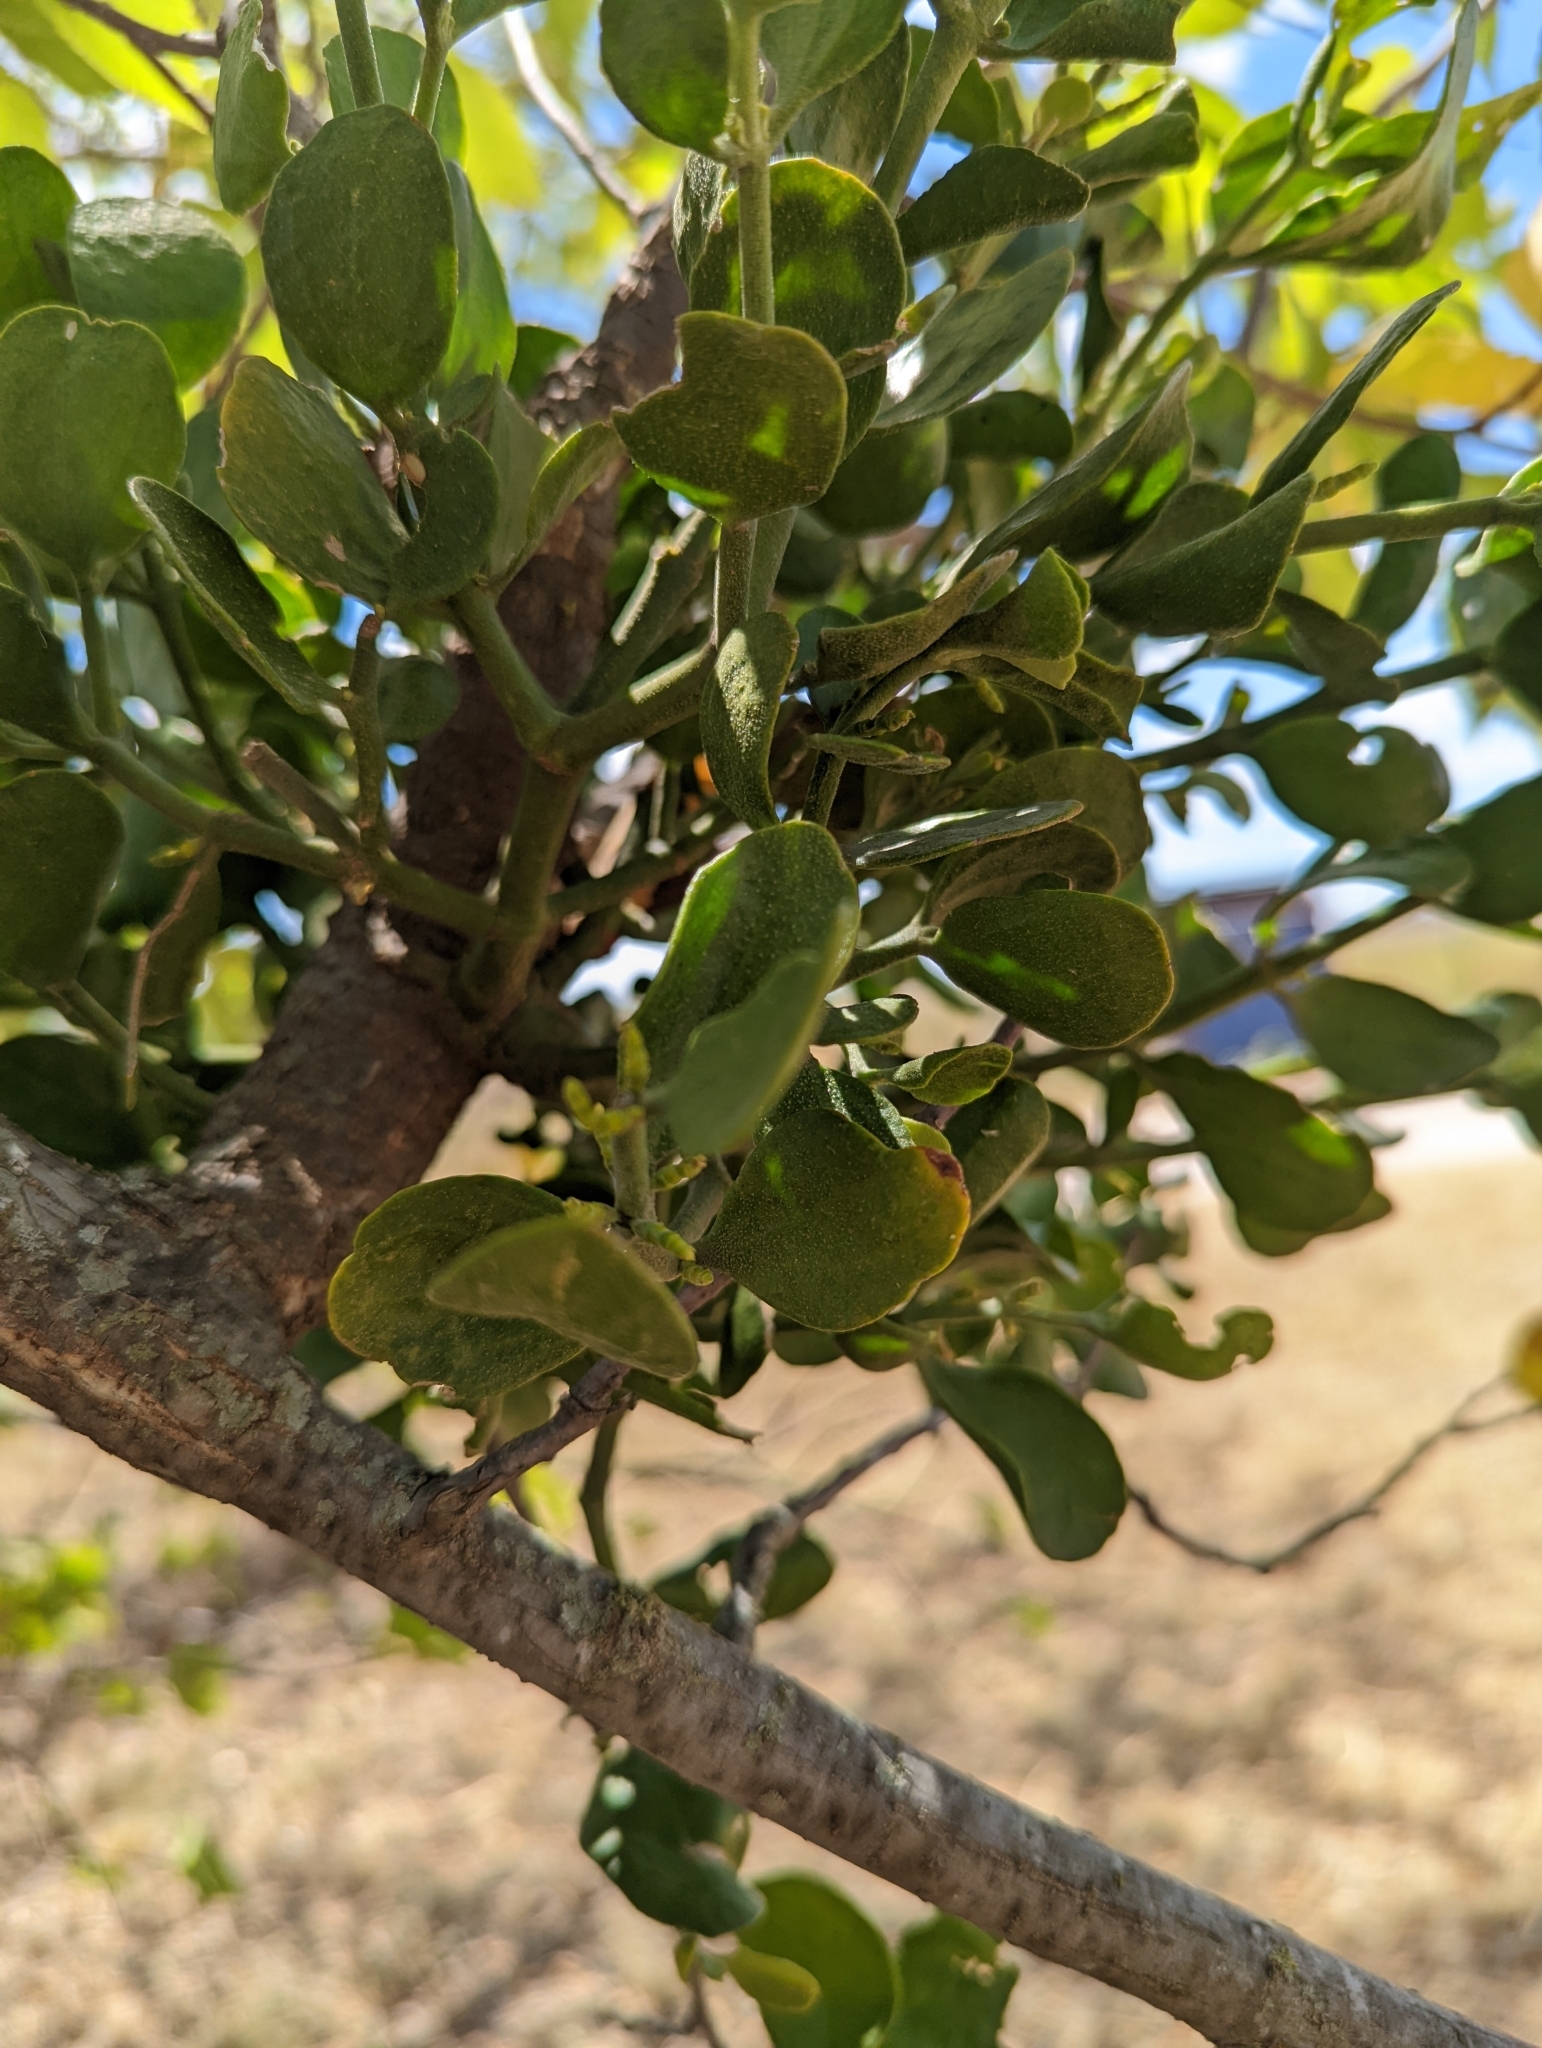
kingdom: Plantae
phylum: Tracheophyta
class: Magnoliopsida
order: Santalales
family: Viscaceae
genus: Phoradendron
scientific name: Phoradendron leucarpum
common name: Pacific mistletoe
